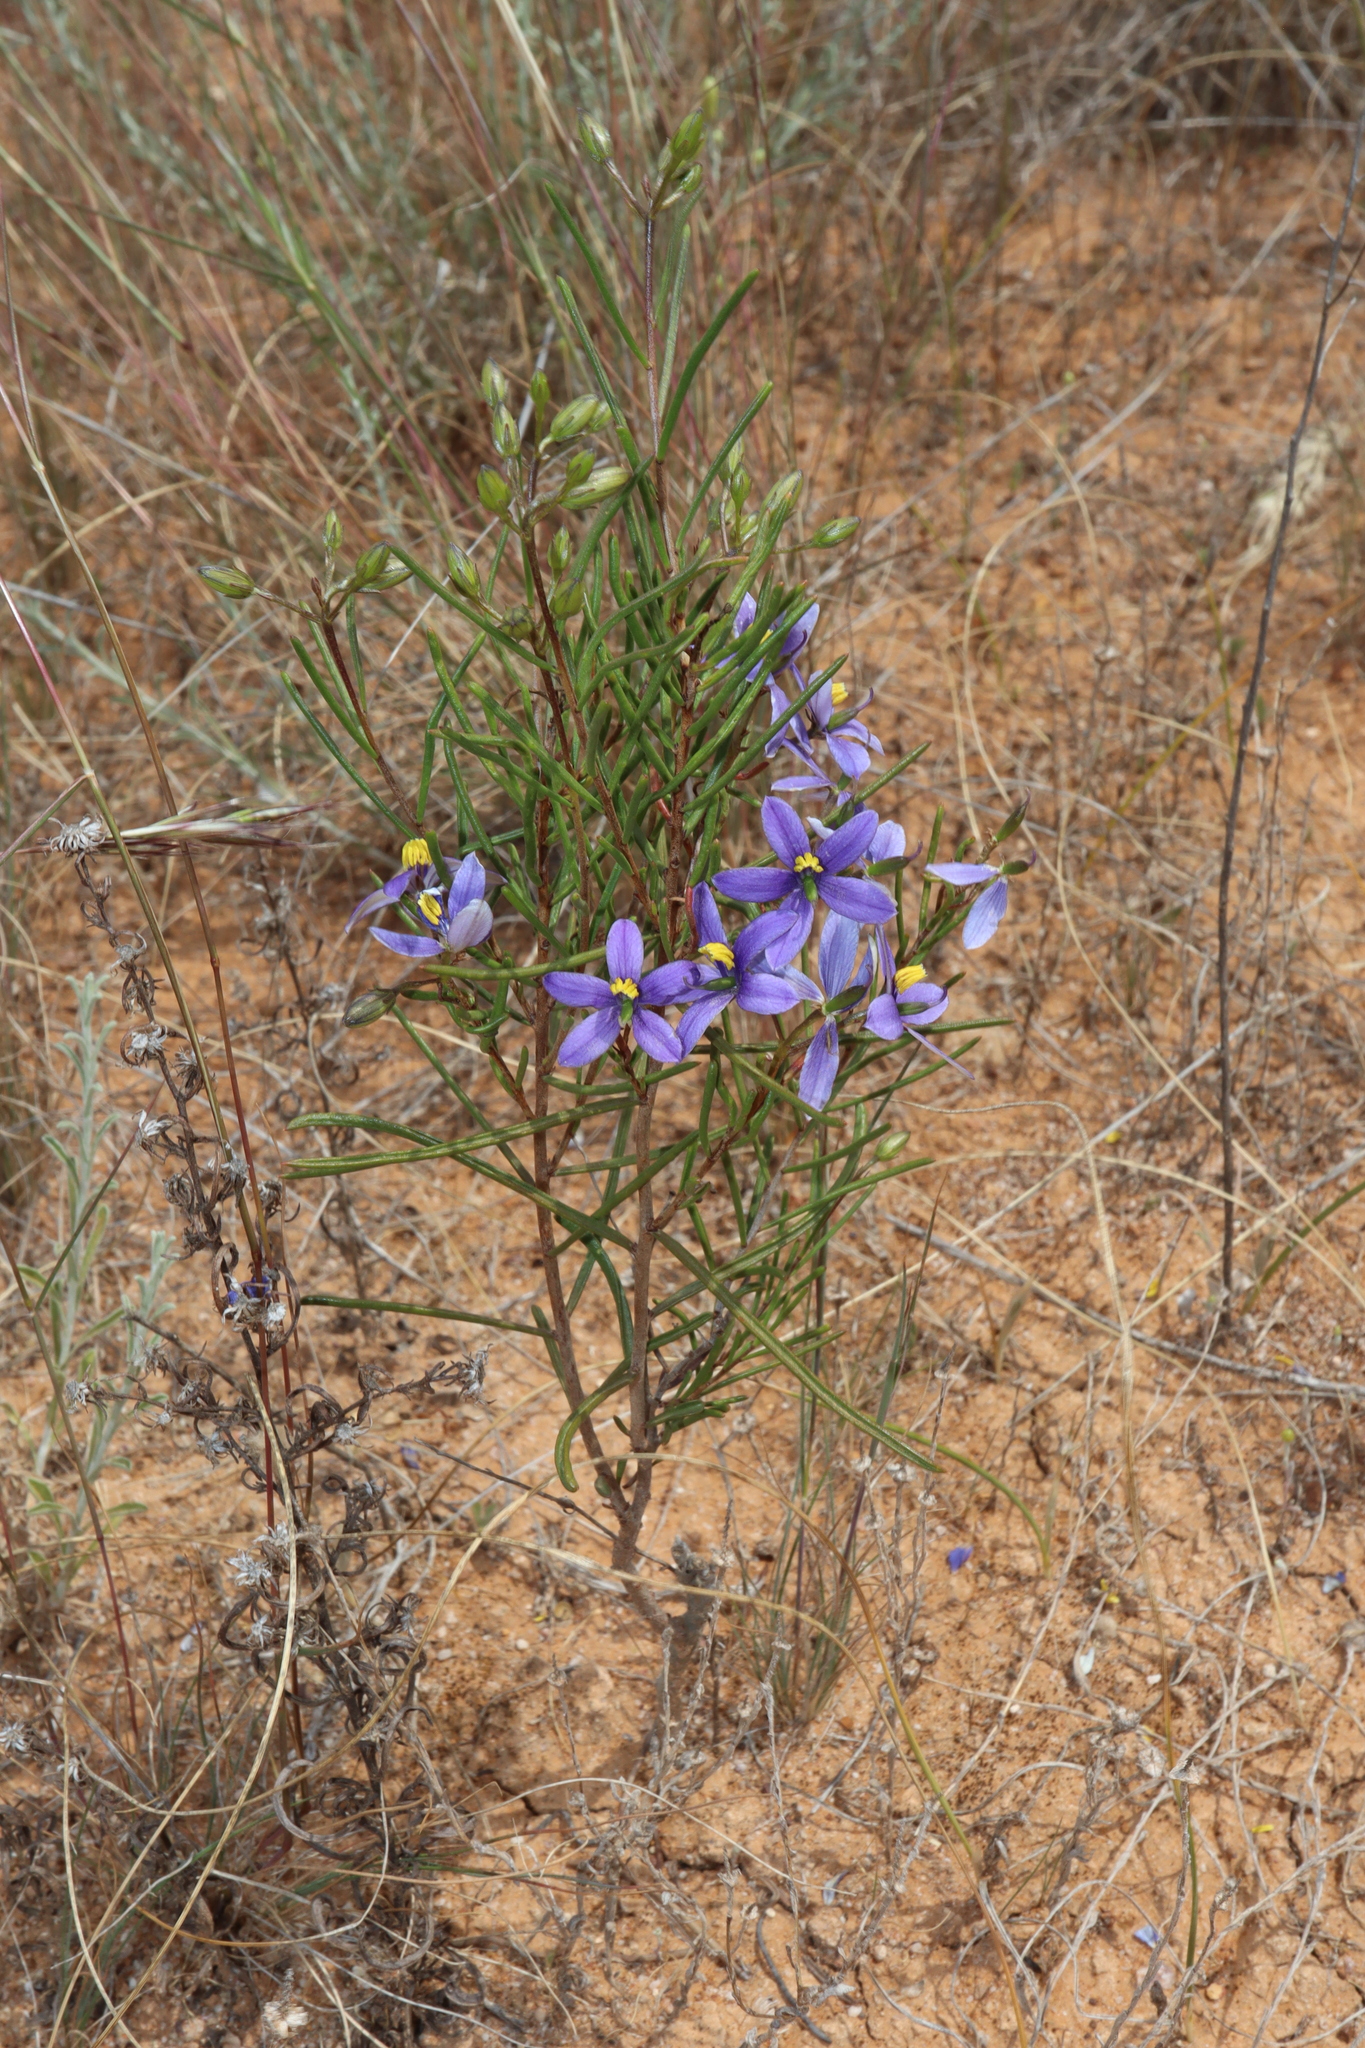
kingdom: Plantae
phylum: Tracheophyta
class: Magnoliopsida
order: Apiales
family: Pittosporaceae
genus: Cheiranthera
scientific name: Cheiranthera filifolia
